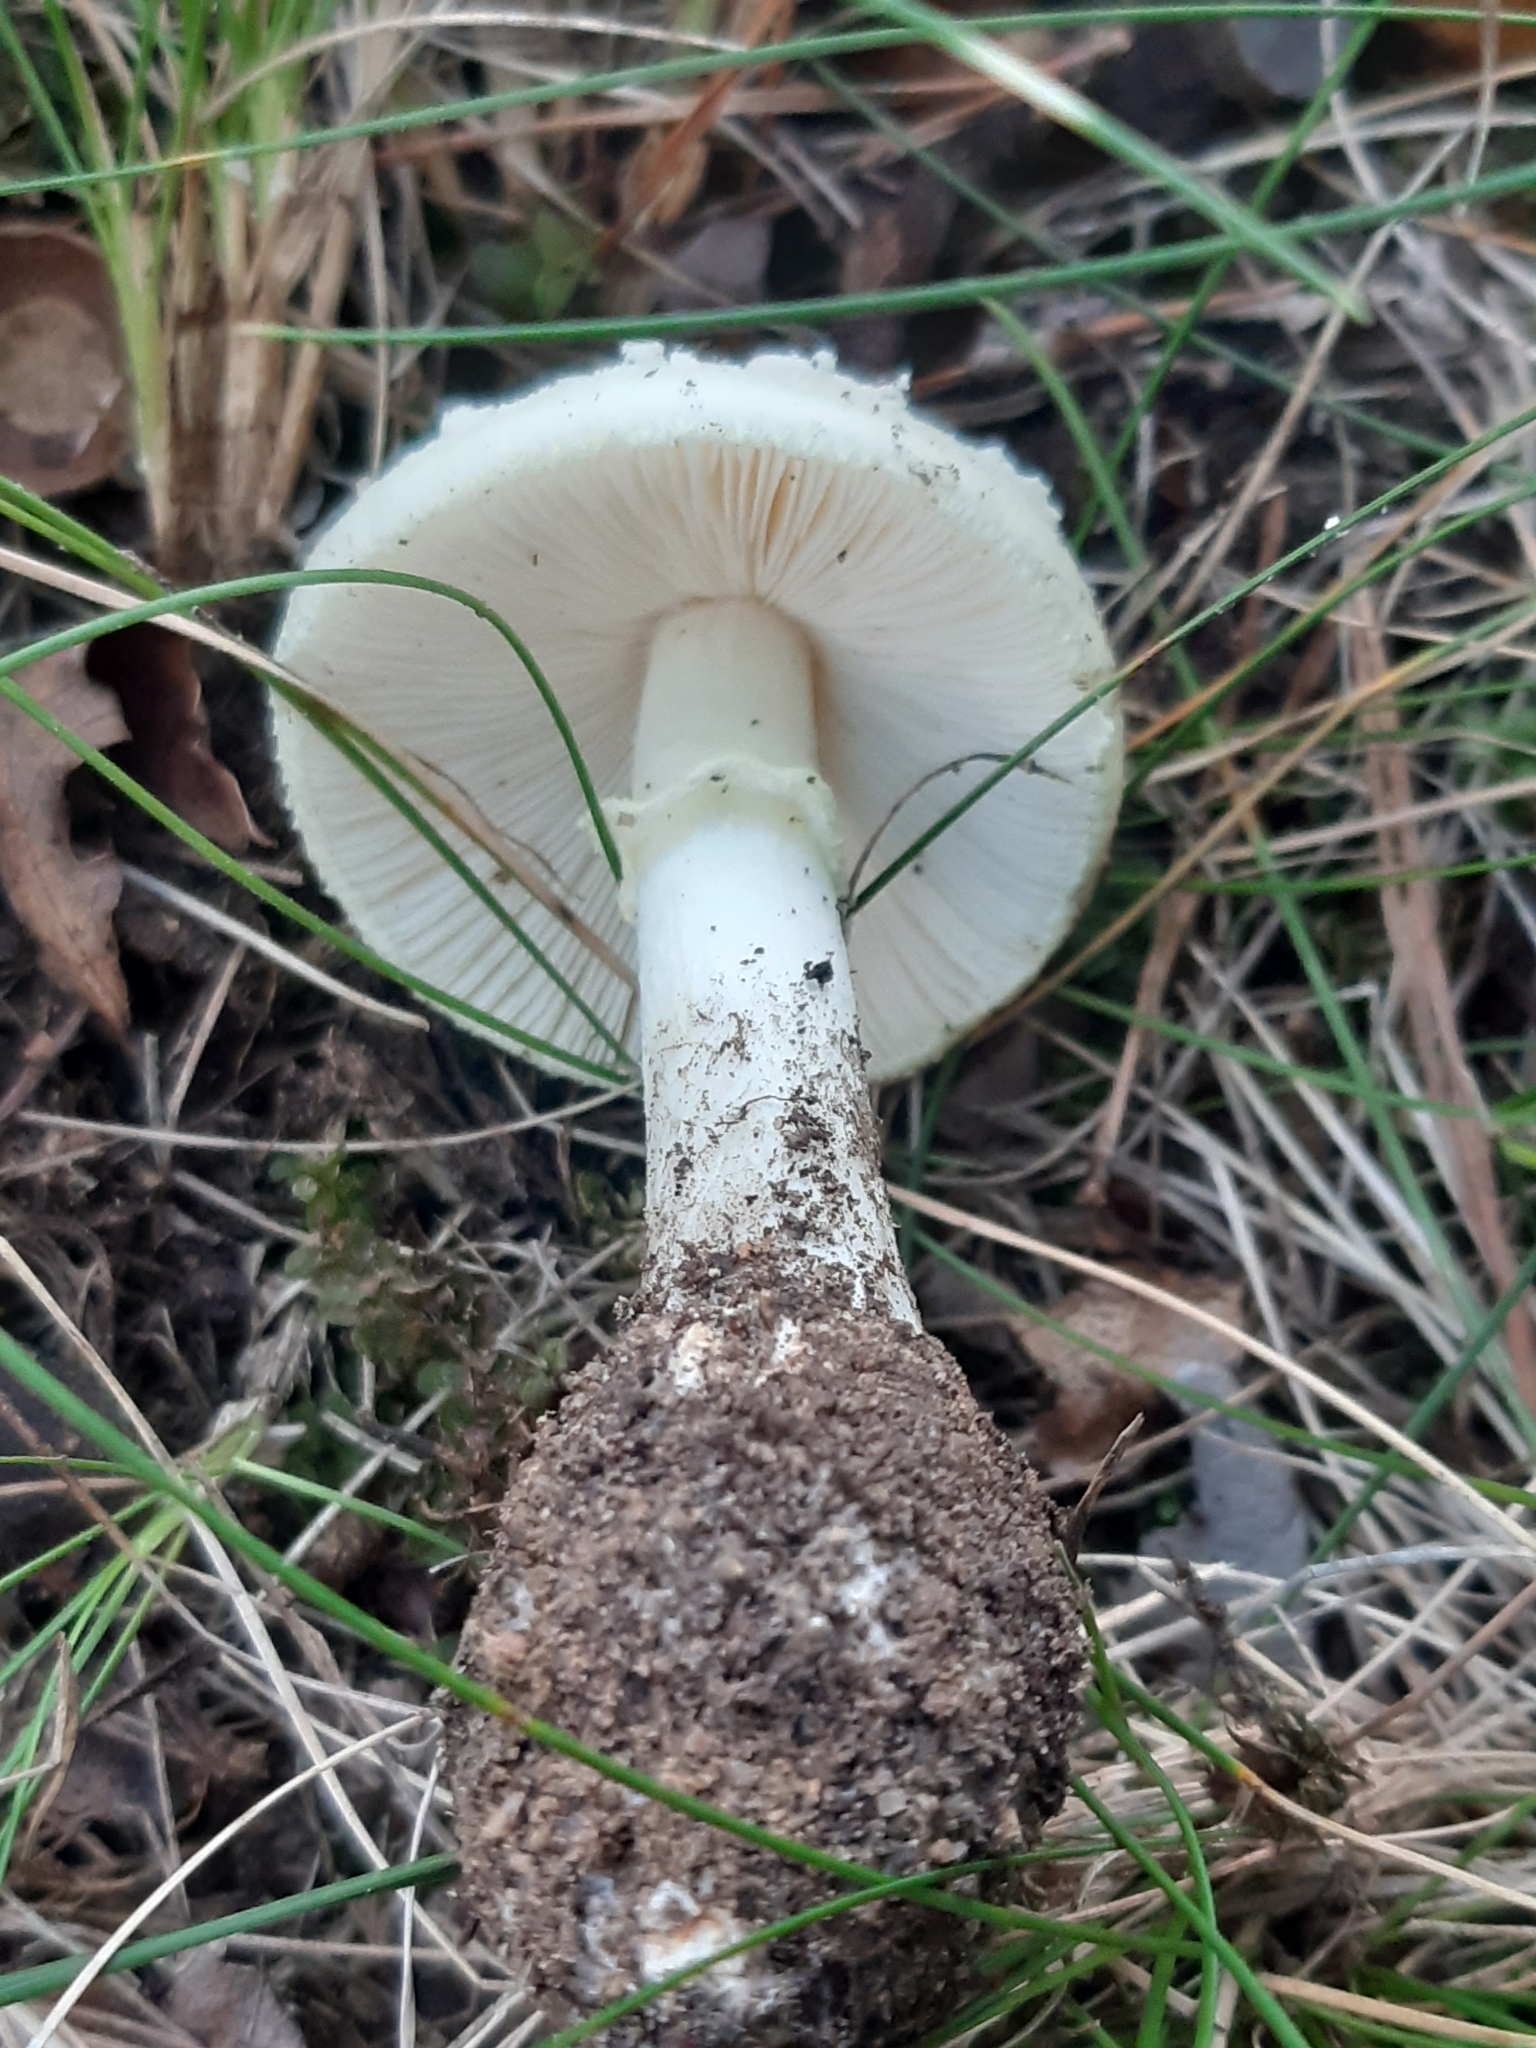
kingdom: Fungi
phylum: Basidiomycota
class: Agaricomycetes
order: Agaricales
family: Amanitaceae
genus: Amanita
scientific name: Amanita citrina
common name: False death-cap
